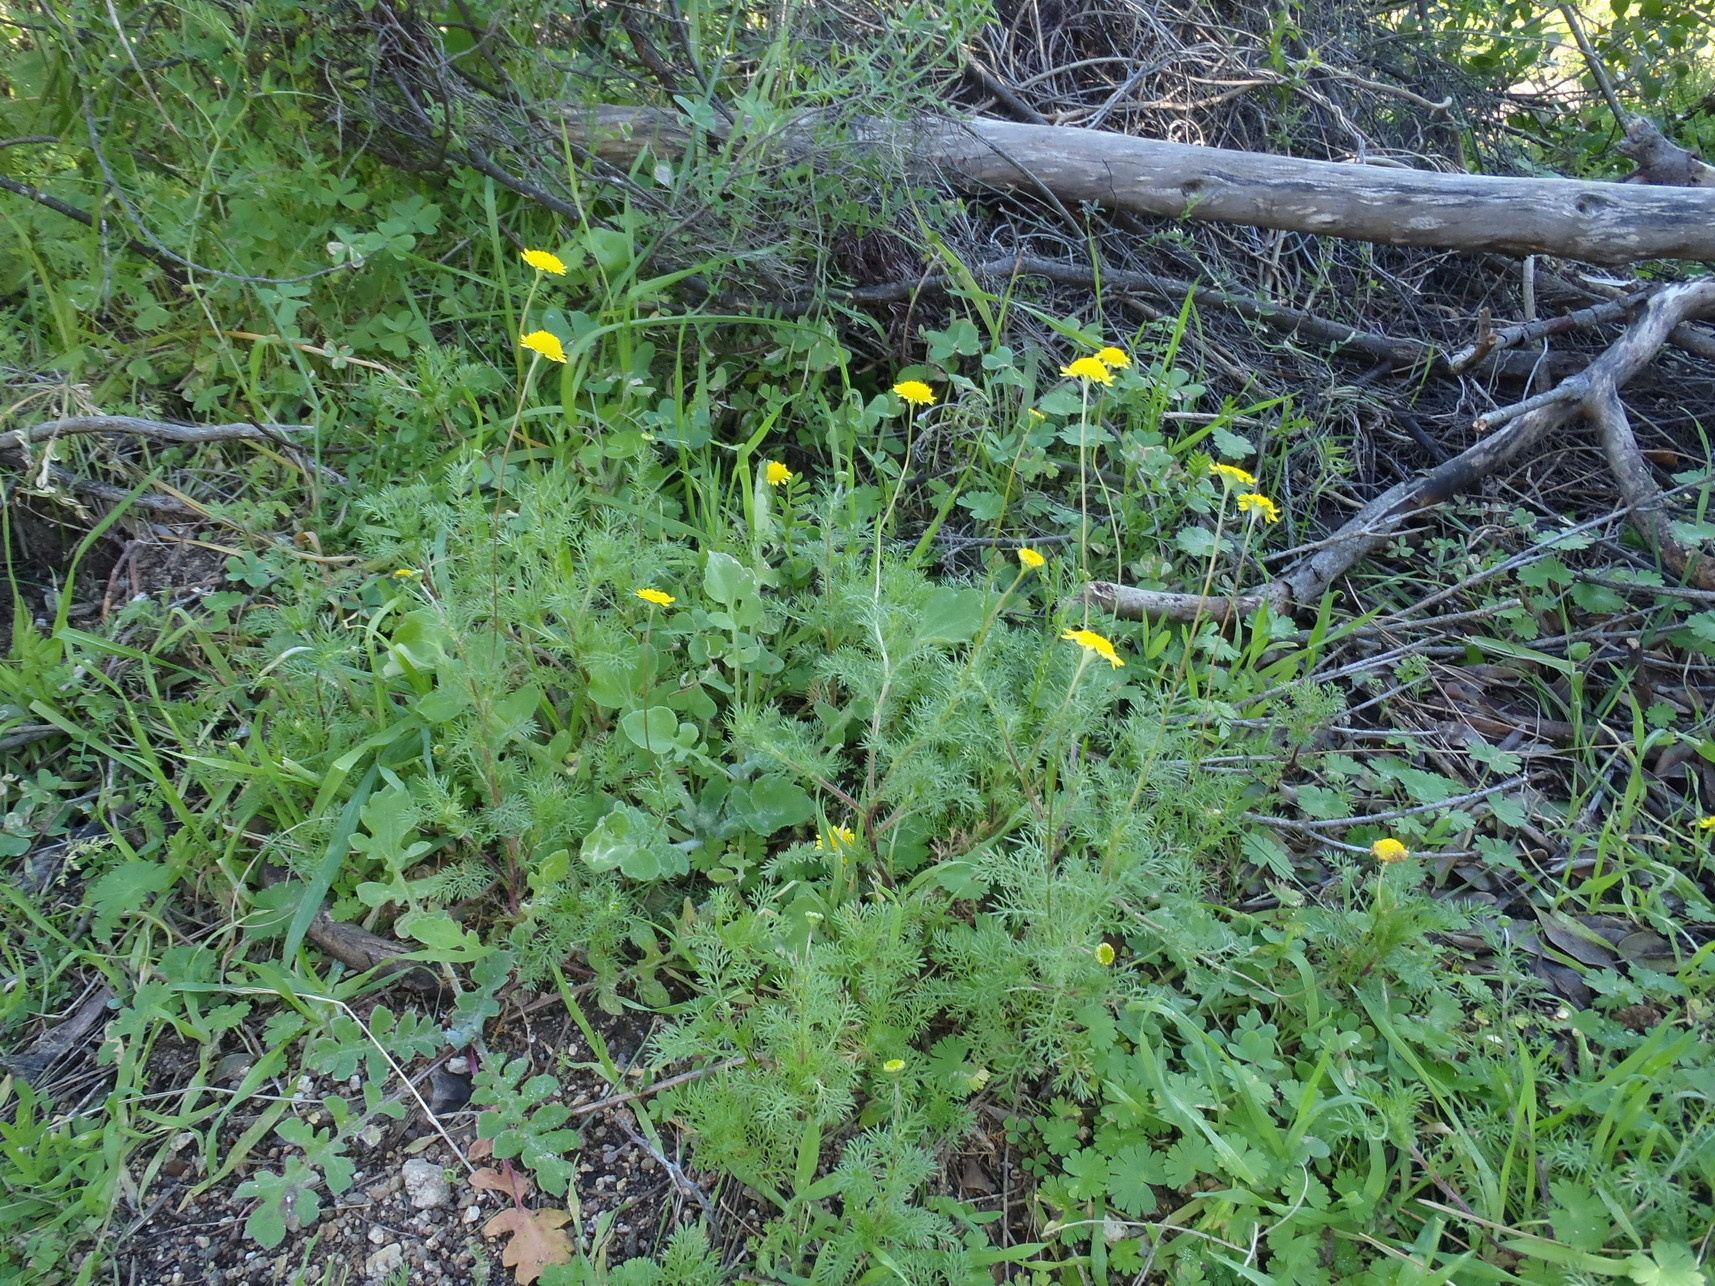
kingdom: Plantae
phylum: Tracheophyta
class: Magnoliopsida
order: Asterales
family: Asteraceae
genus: Cotula
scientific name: Cotula pruinosa
